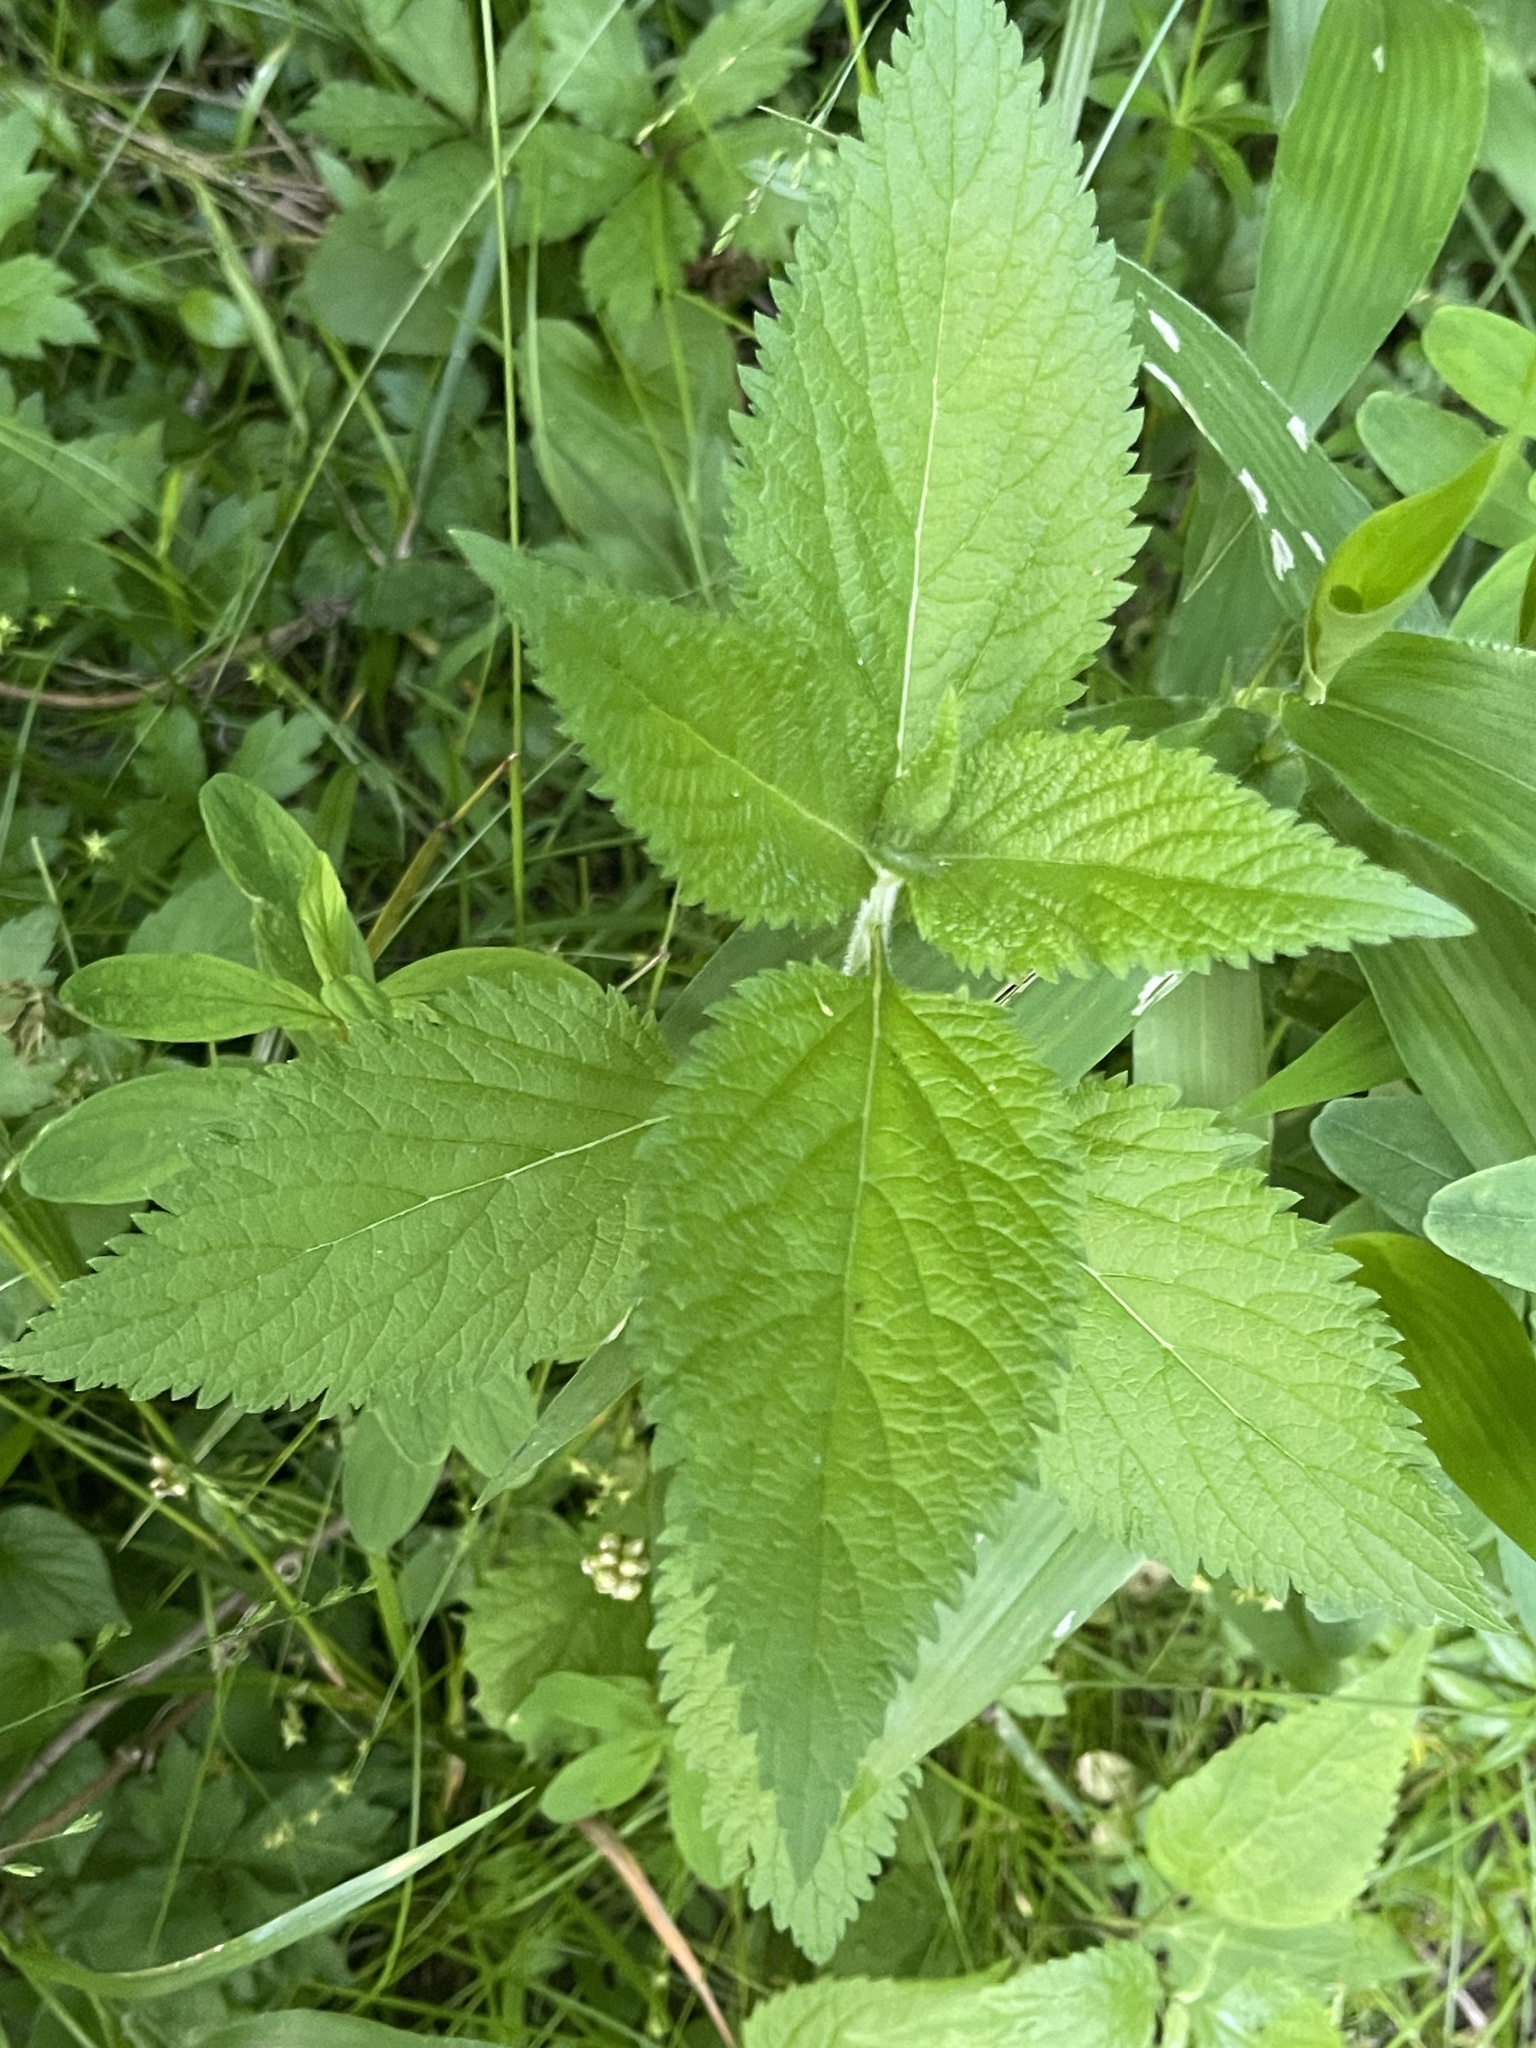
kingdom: Plantae
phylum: Tracheophyta
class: Magnoliopsida
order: Lamiales
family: Verbenaceae
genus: Verbena
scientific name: Verbena urticifolia
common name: Nettle-leaved vervain
